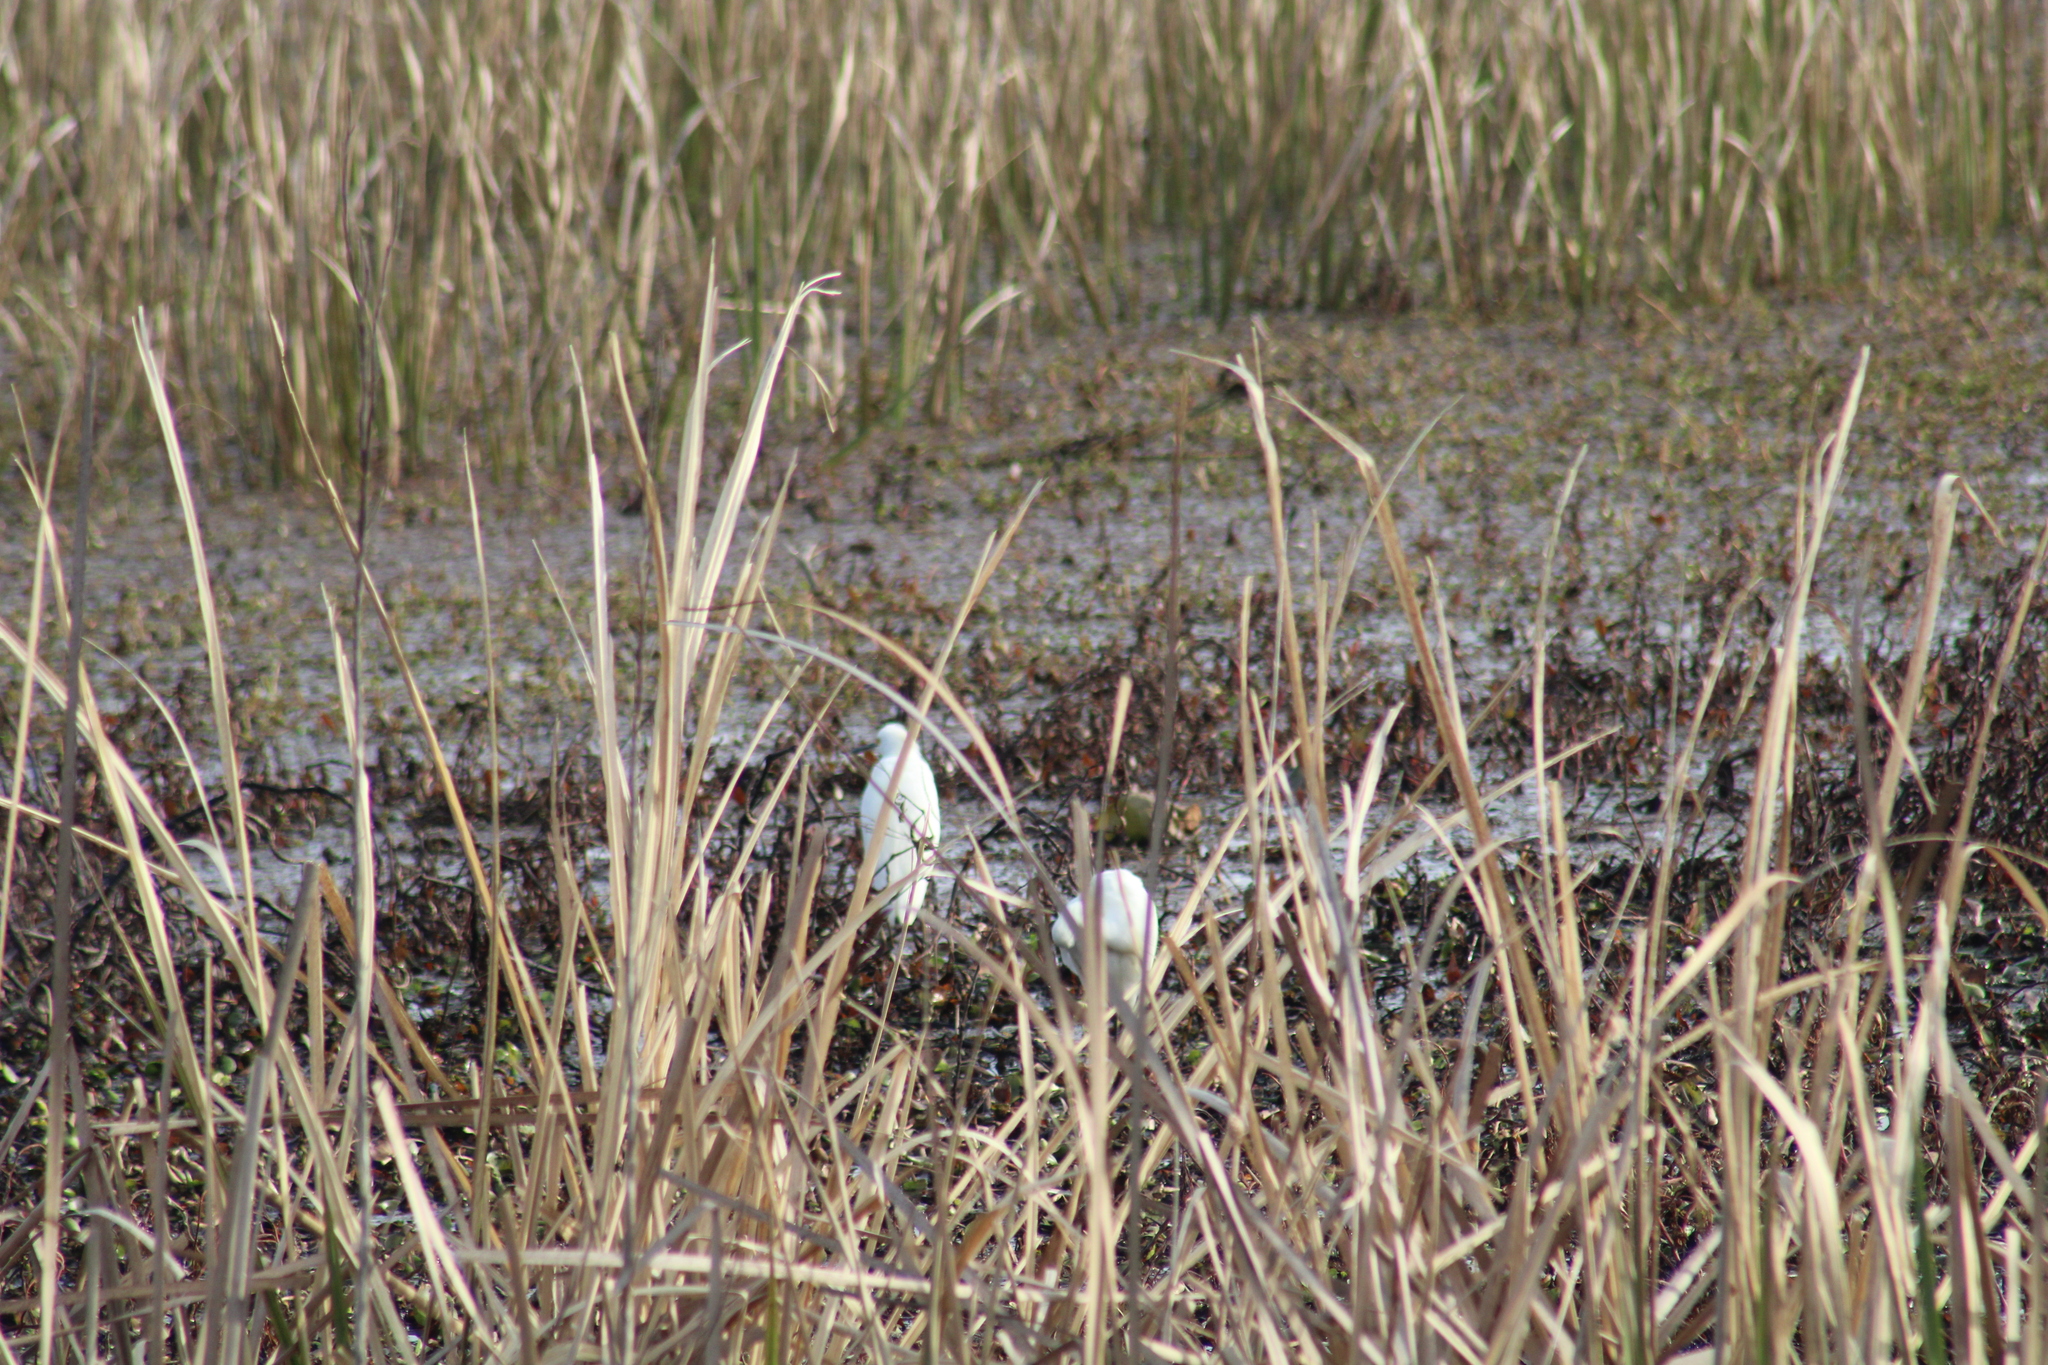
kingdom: Animalia
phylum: Chordata
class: Aves
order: Pelecaniformes
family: Ardeidae
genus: Egretta
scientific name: Egretta thula
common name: Snowy egret
